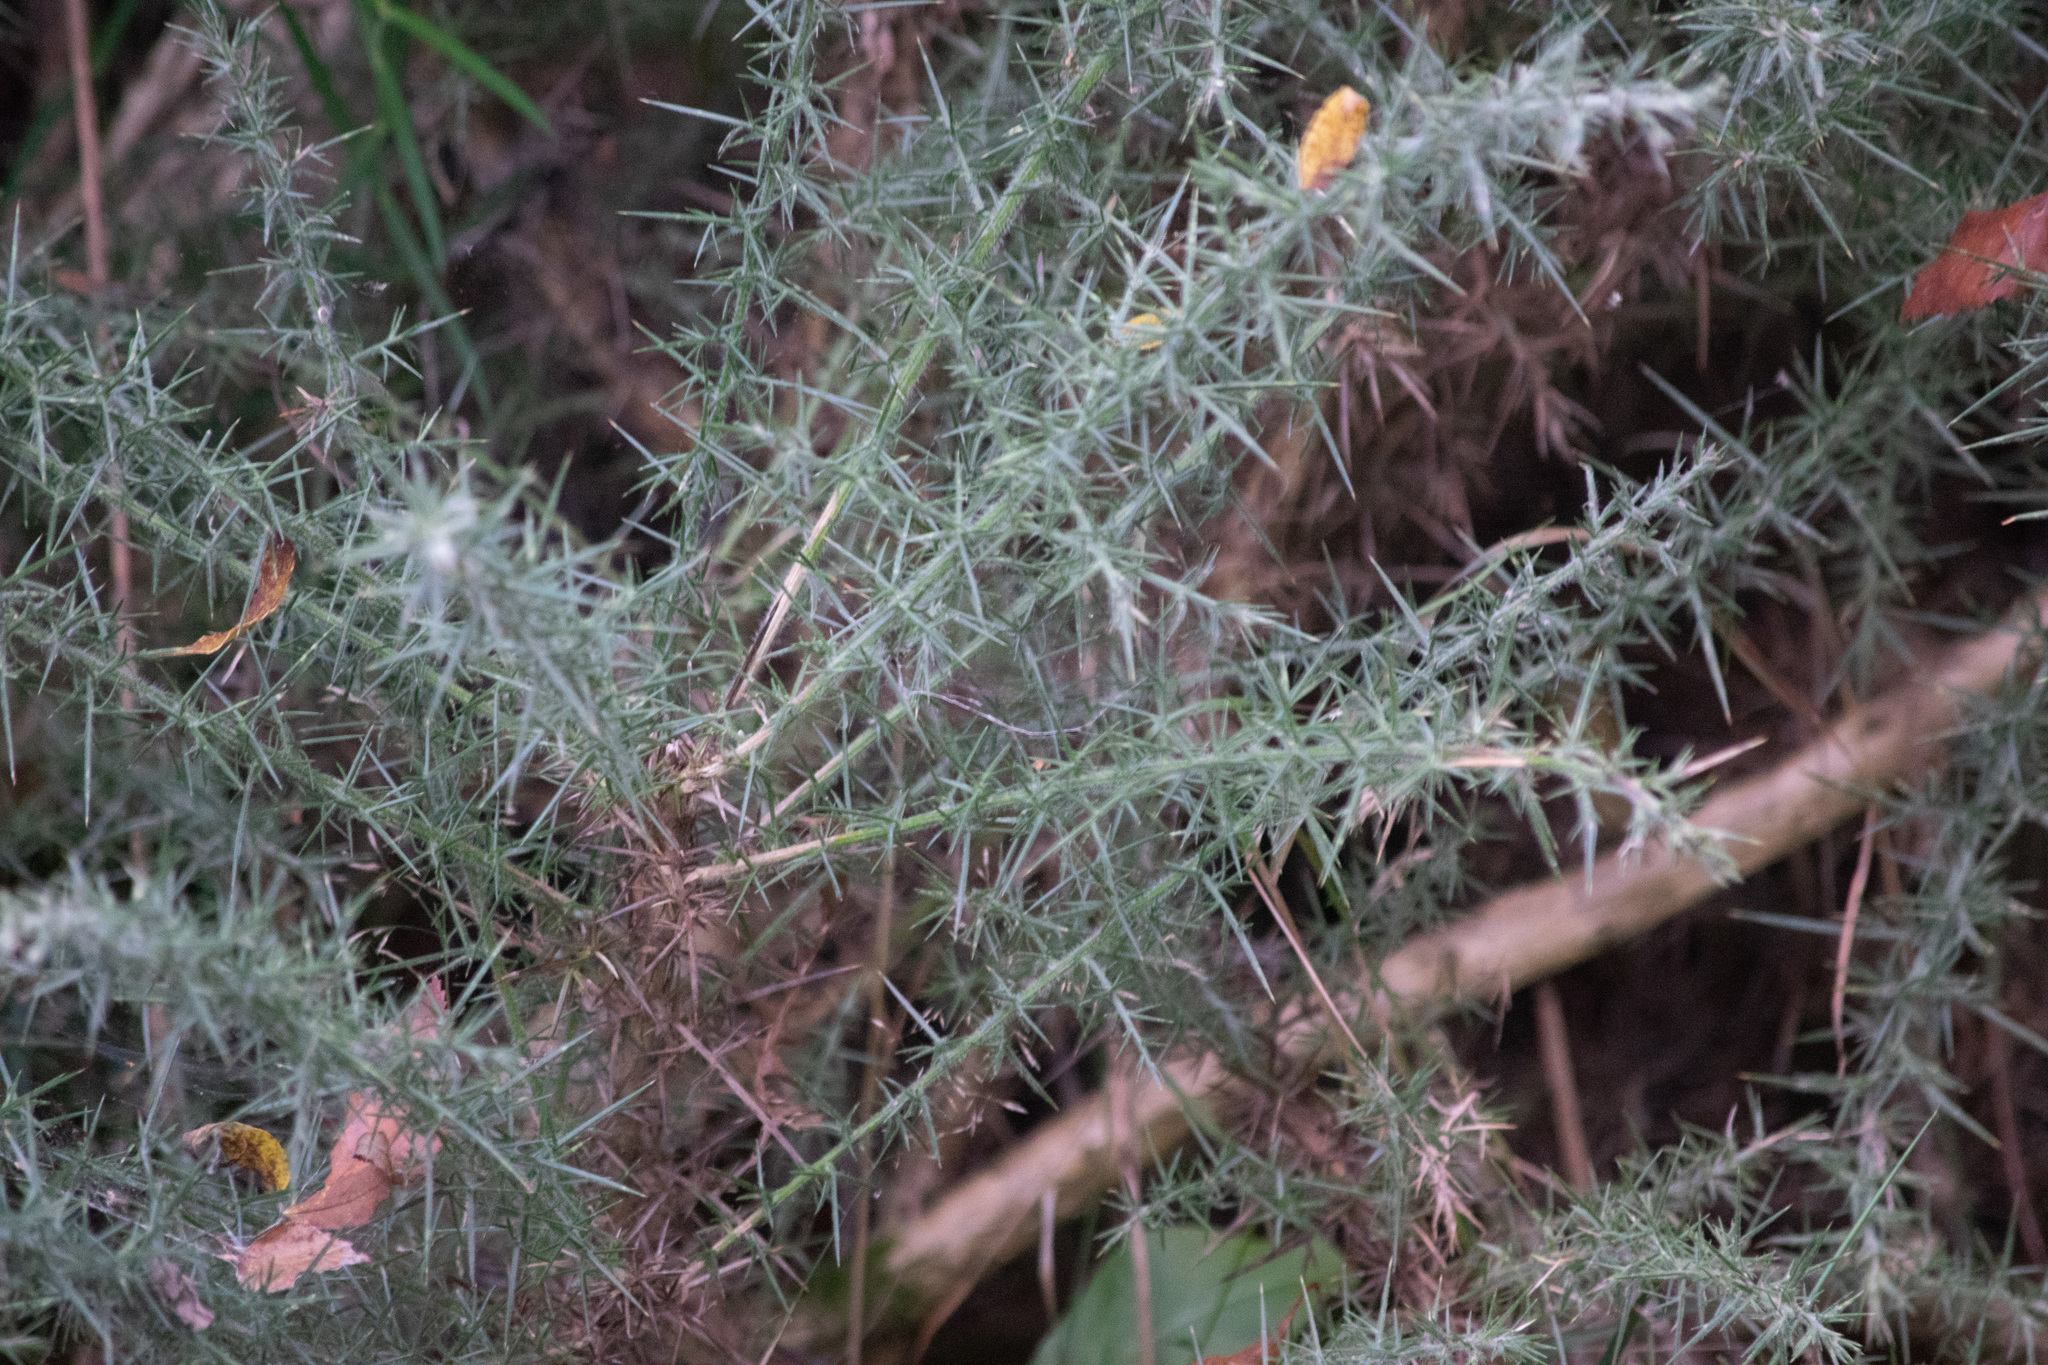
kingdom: Plantae
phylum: Tracheophyta
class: Magnoliopsida
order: Fabales
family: Fabaceae
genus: Ulex
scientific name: Ulex europaeus
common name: Common gorse
